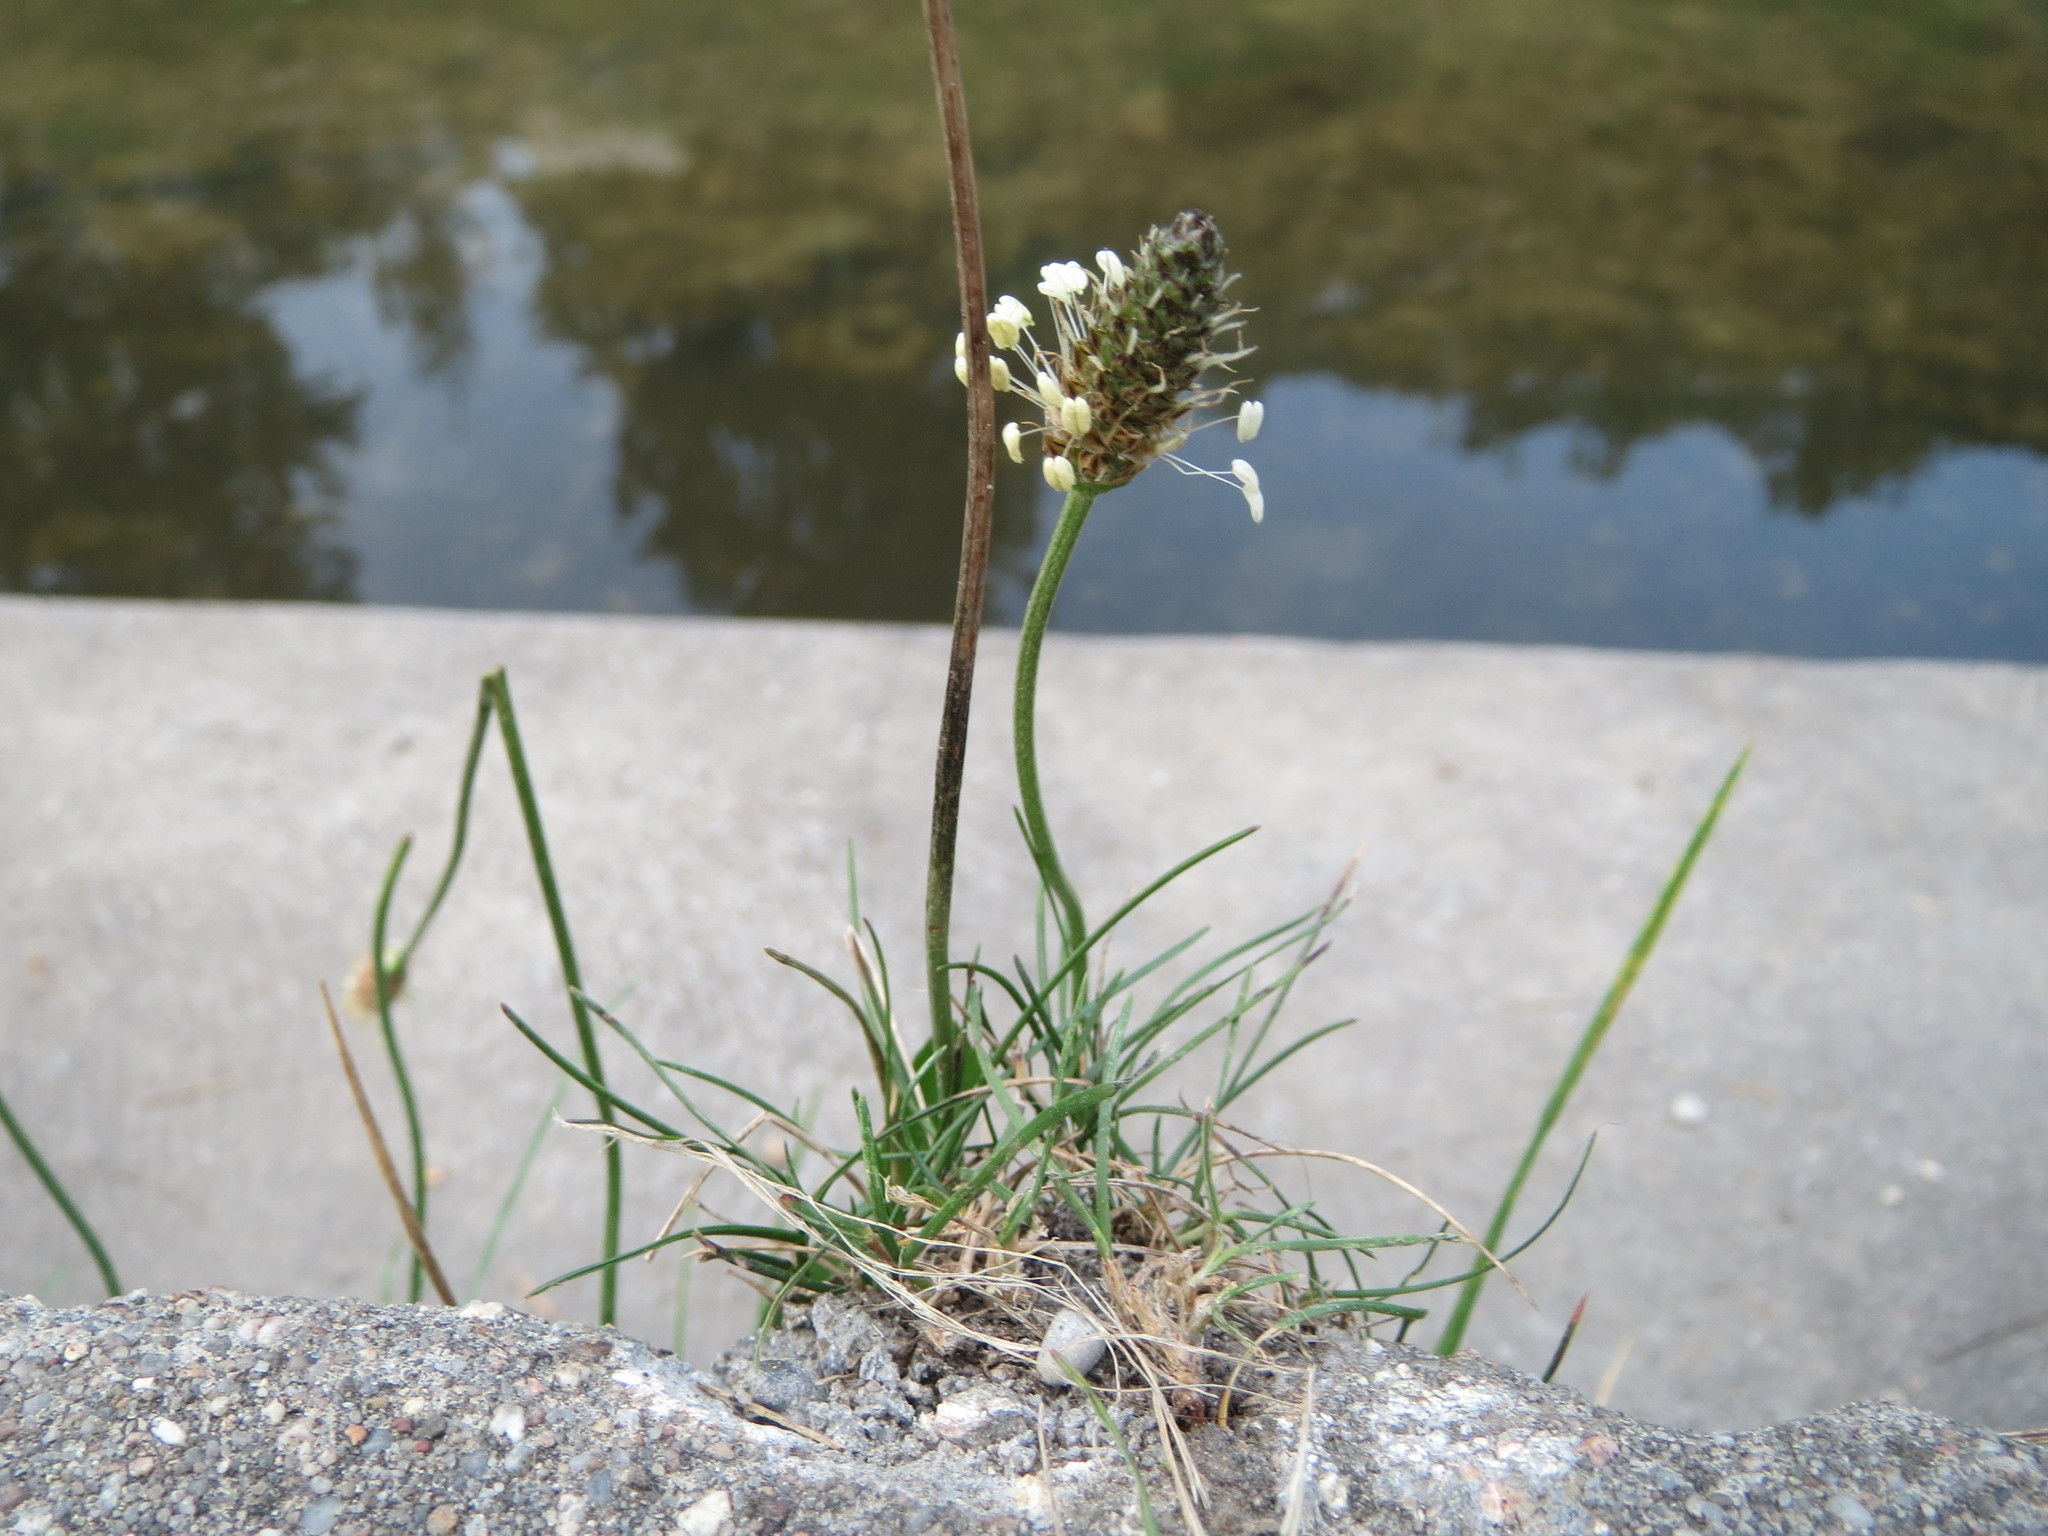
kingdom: Plantae
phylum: Tracheophyta
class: Magnoliopsida
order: Lamiales
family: Plantaginaceae
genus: Plantago
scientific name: Plantago lanceolata
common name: Ribwort plantain
